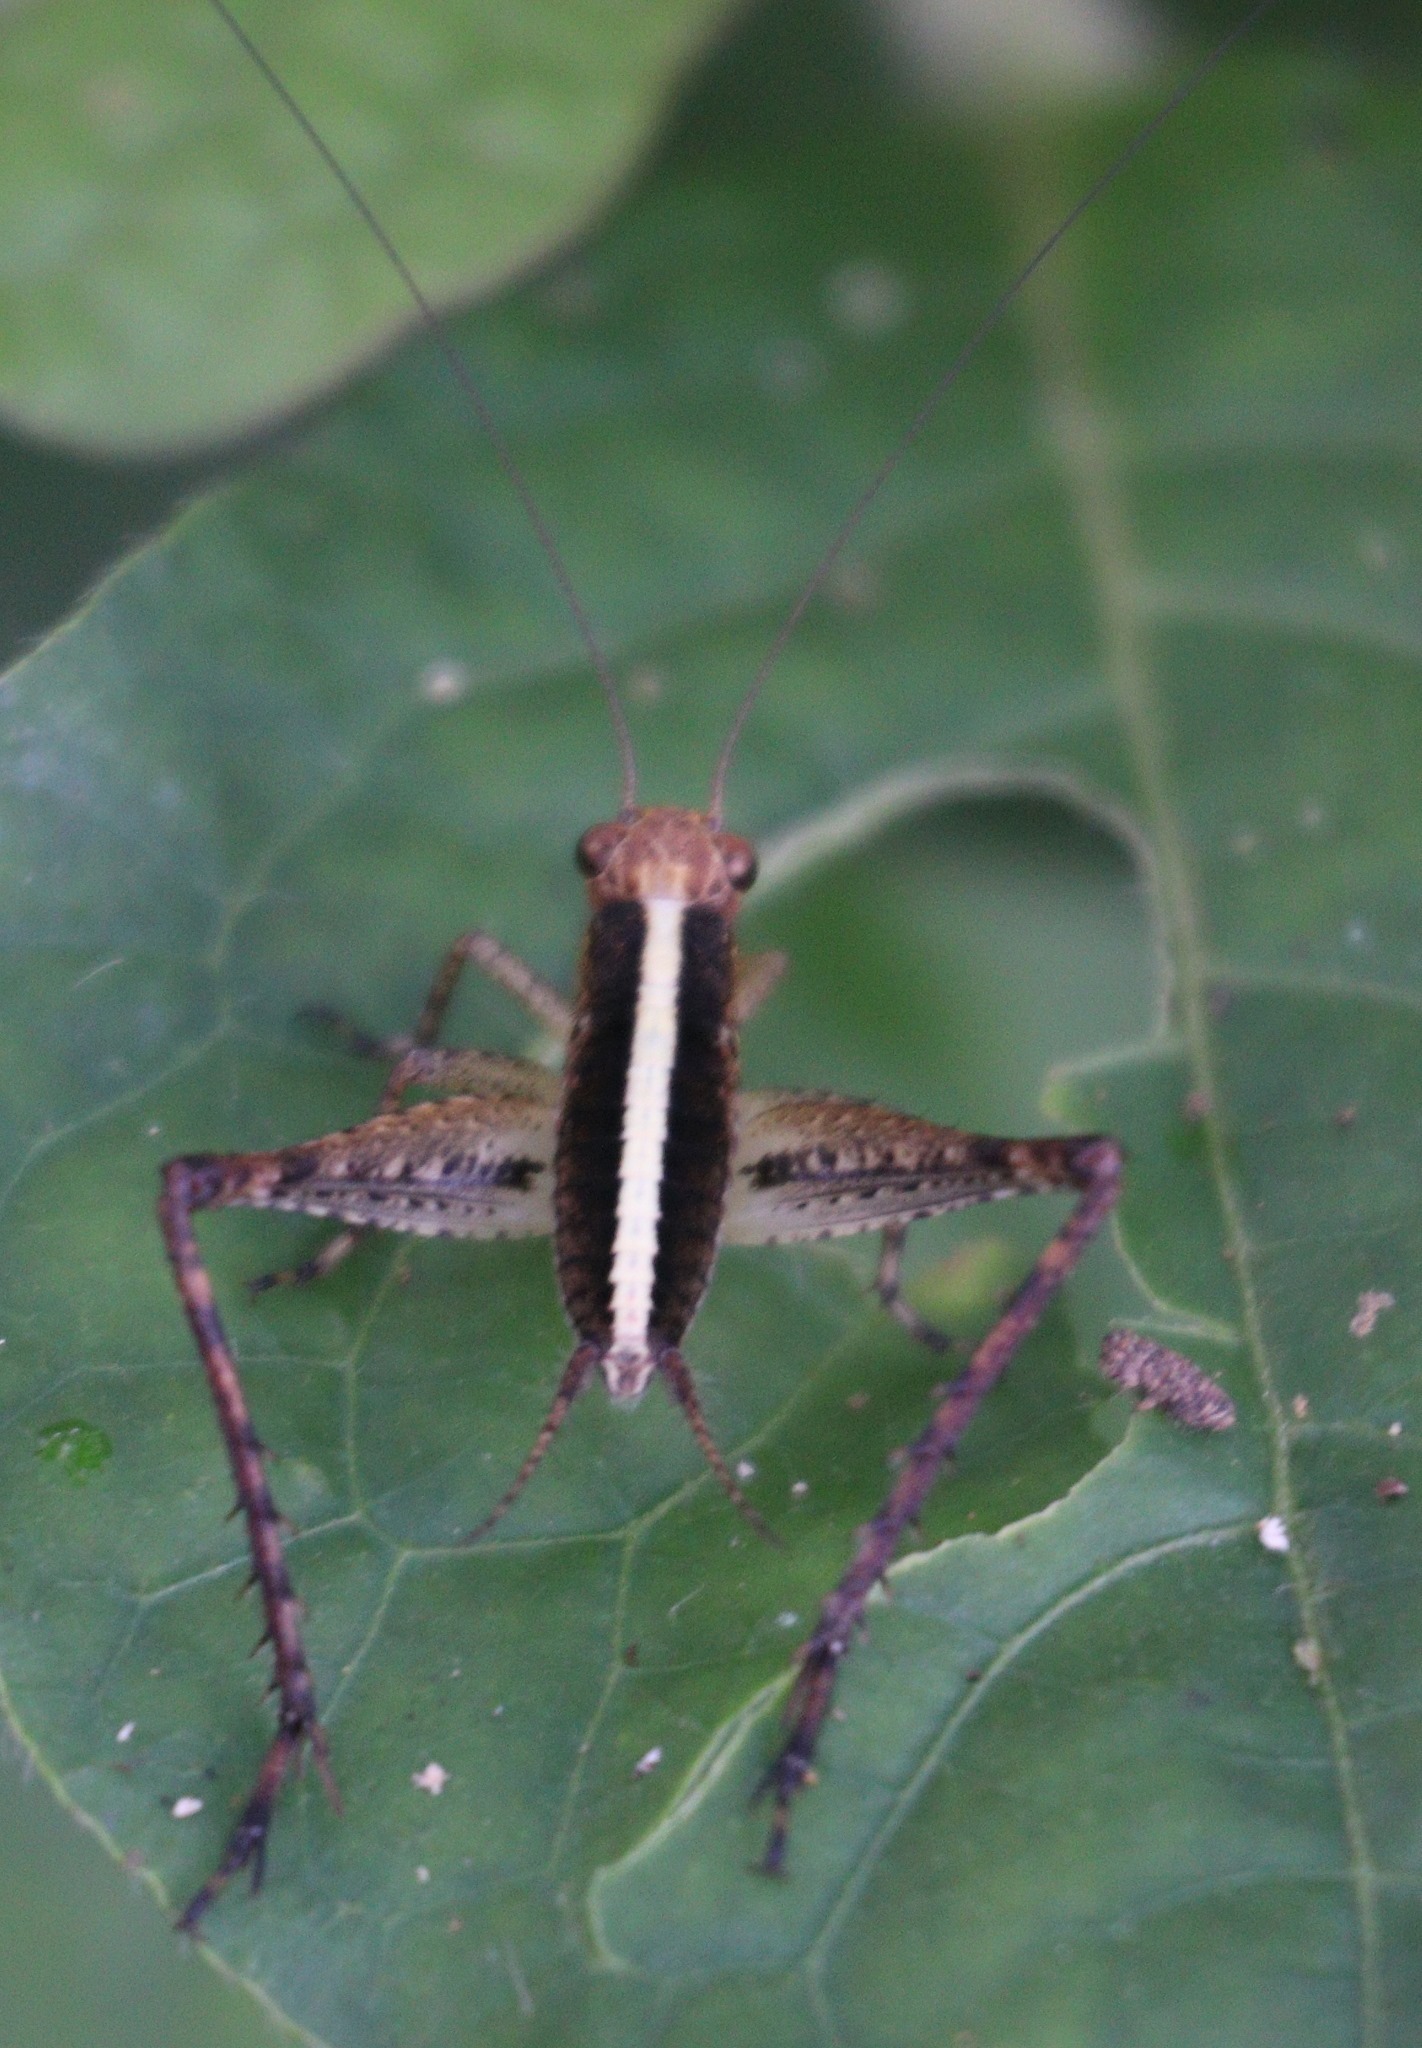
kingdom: Animalia
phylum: Arthropoda
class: Insecta
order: Orthoptera
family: Gryllidae
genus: Eneoptera
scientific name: Eneoptera surinamensis
